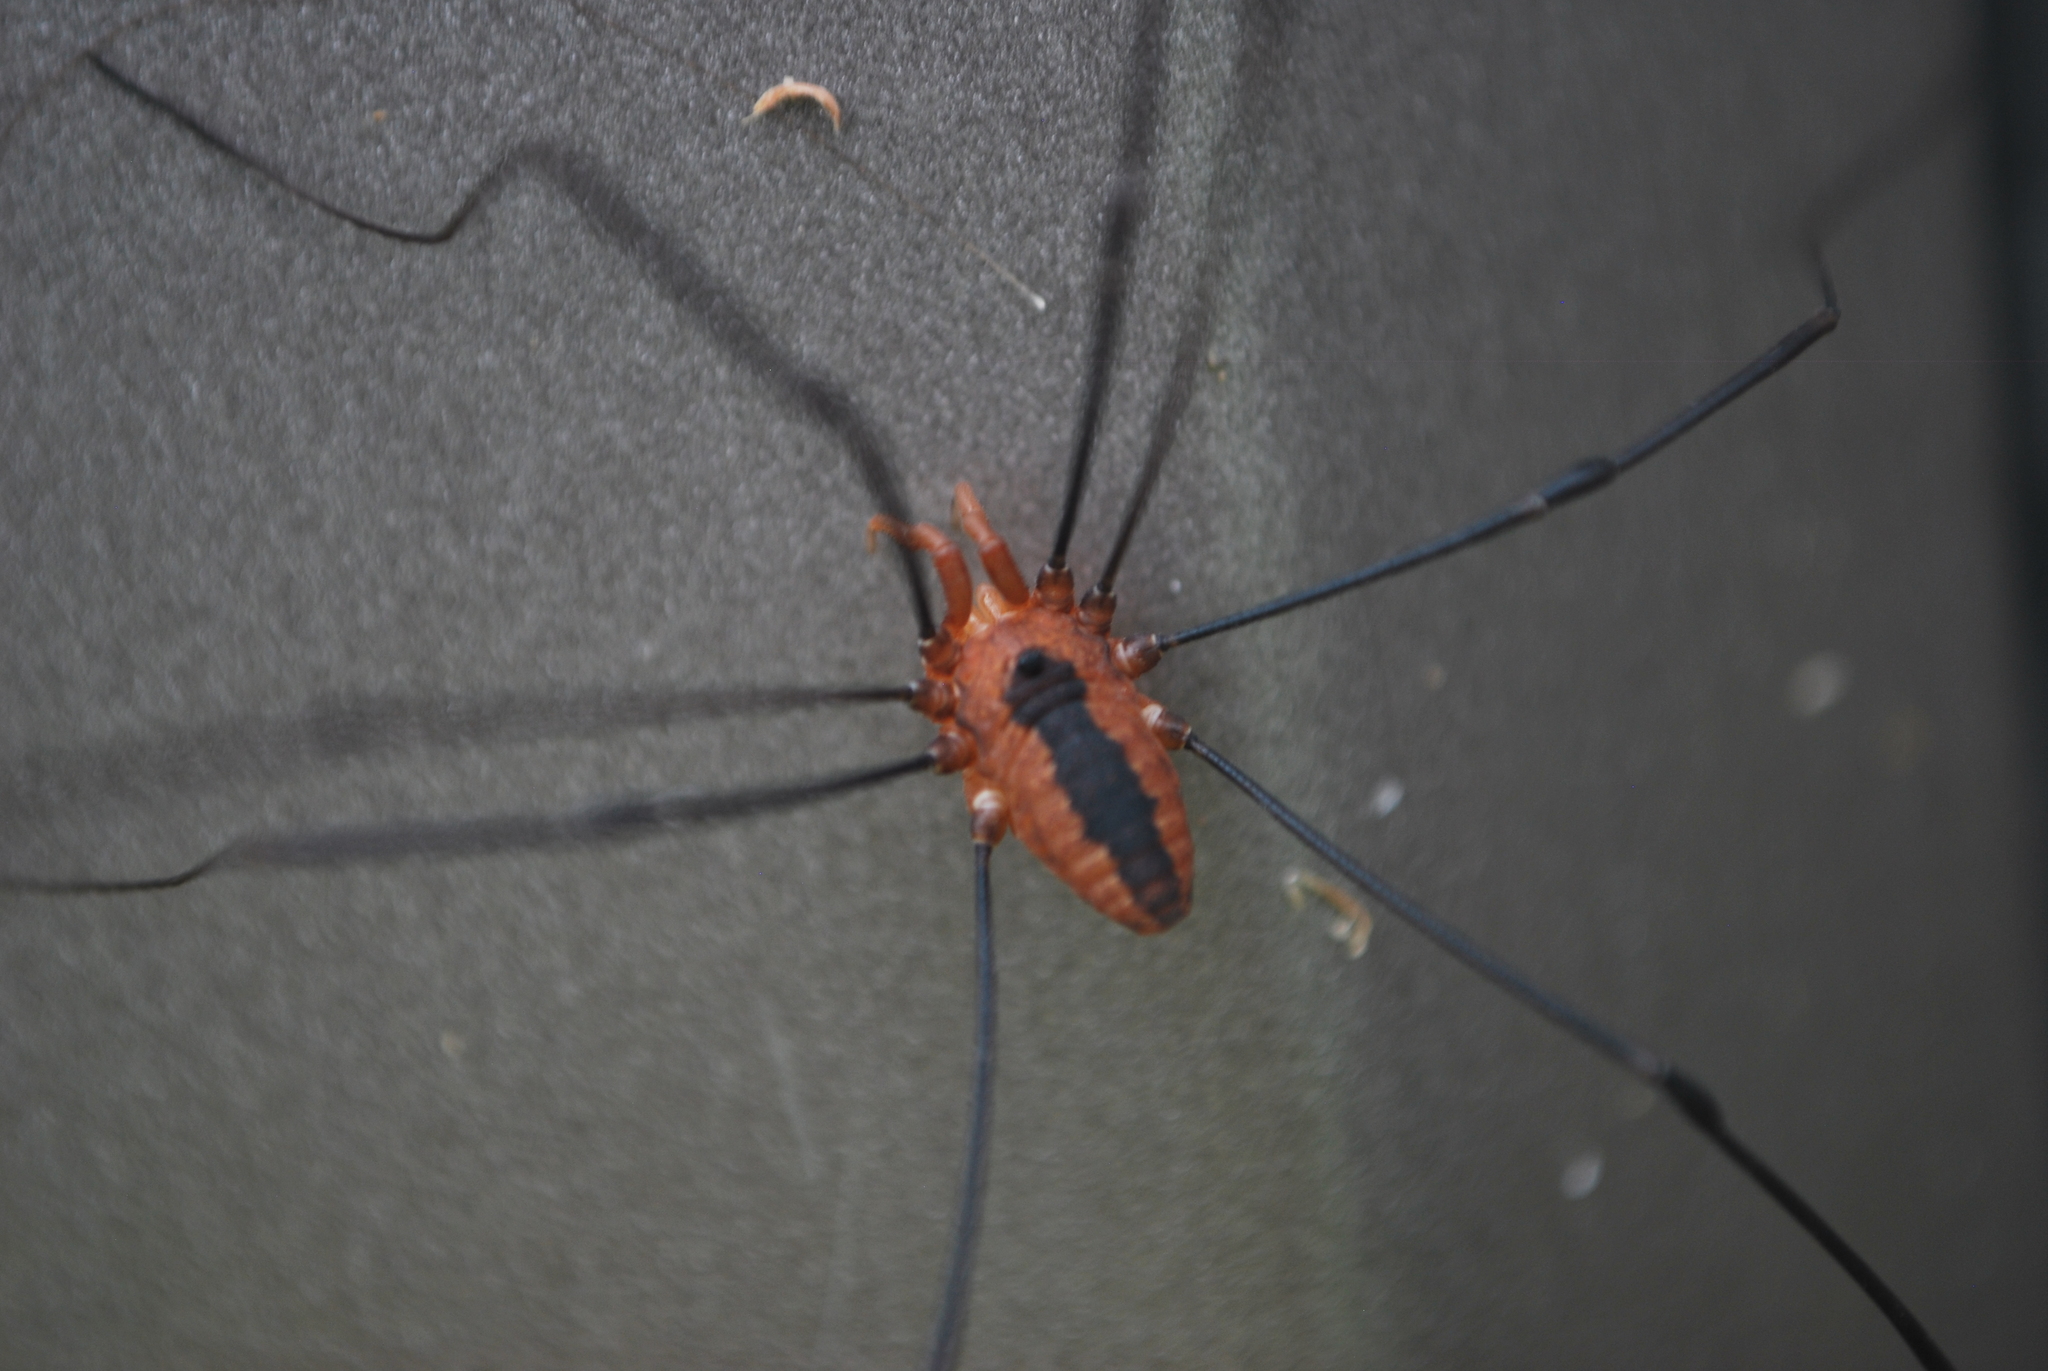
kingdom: Animalia
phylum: Arthropoda
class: Arachnida
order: Opiliones
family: Sclerosomatidae
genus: Leiobunum
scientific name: Leiobunum vittatum
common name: Eastern harvestman
